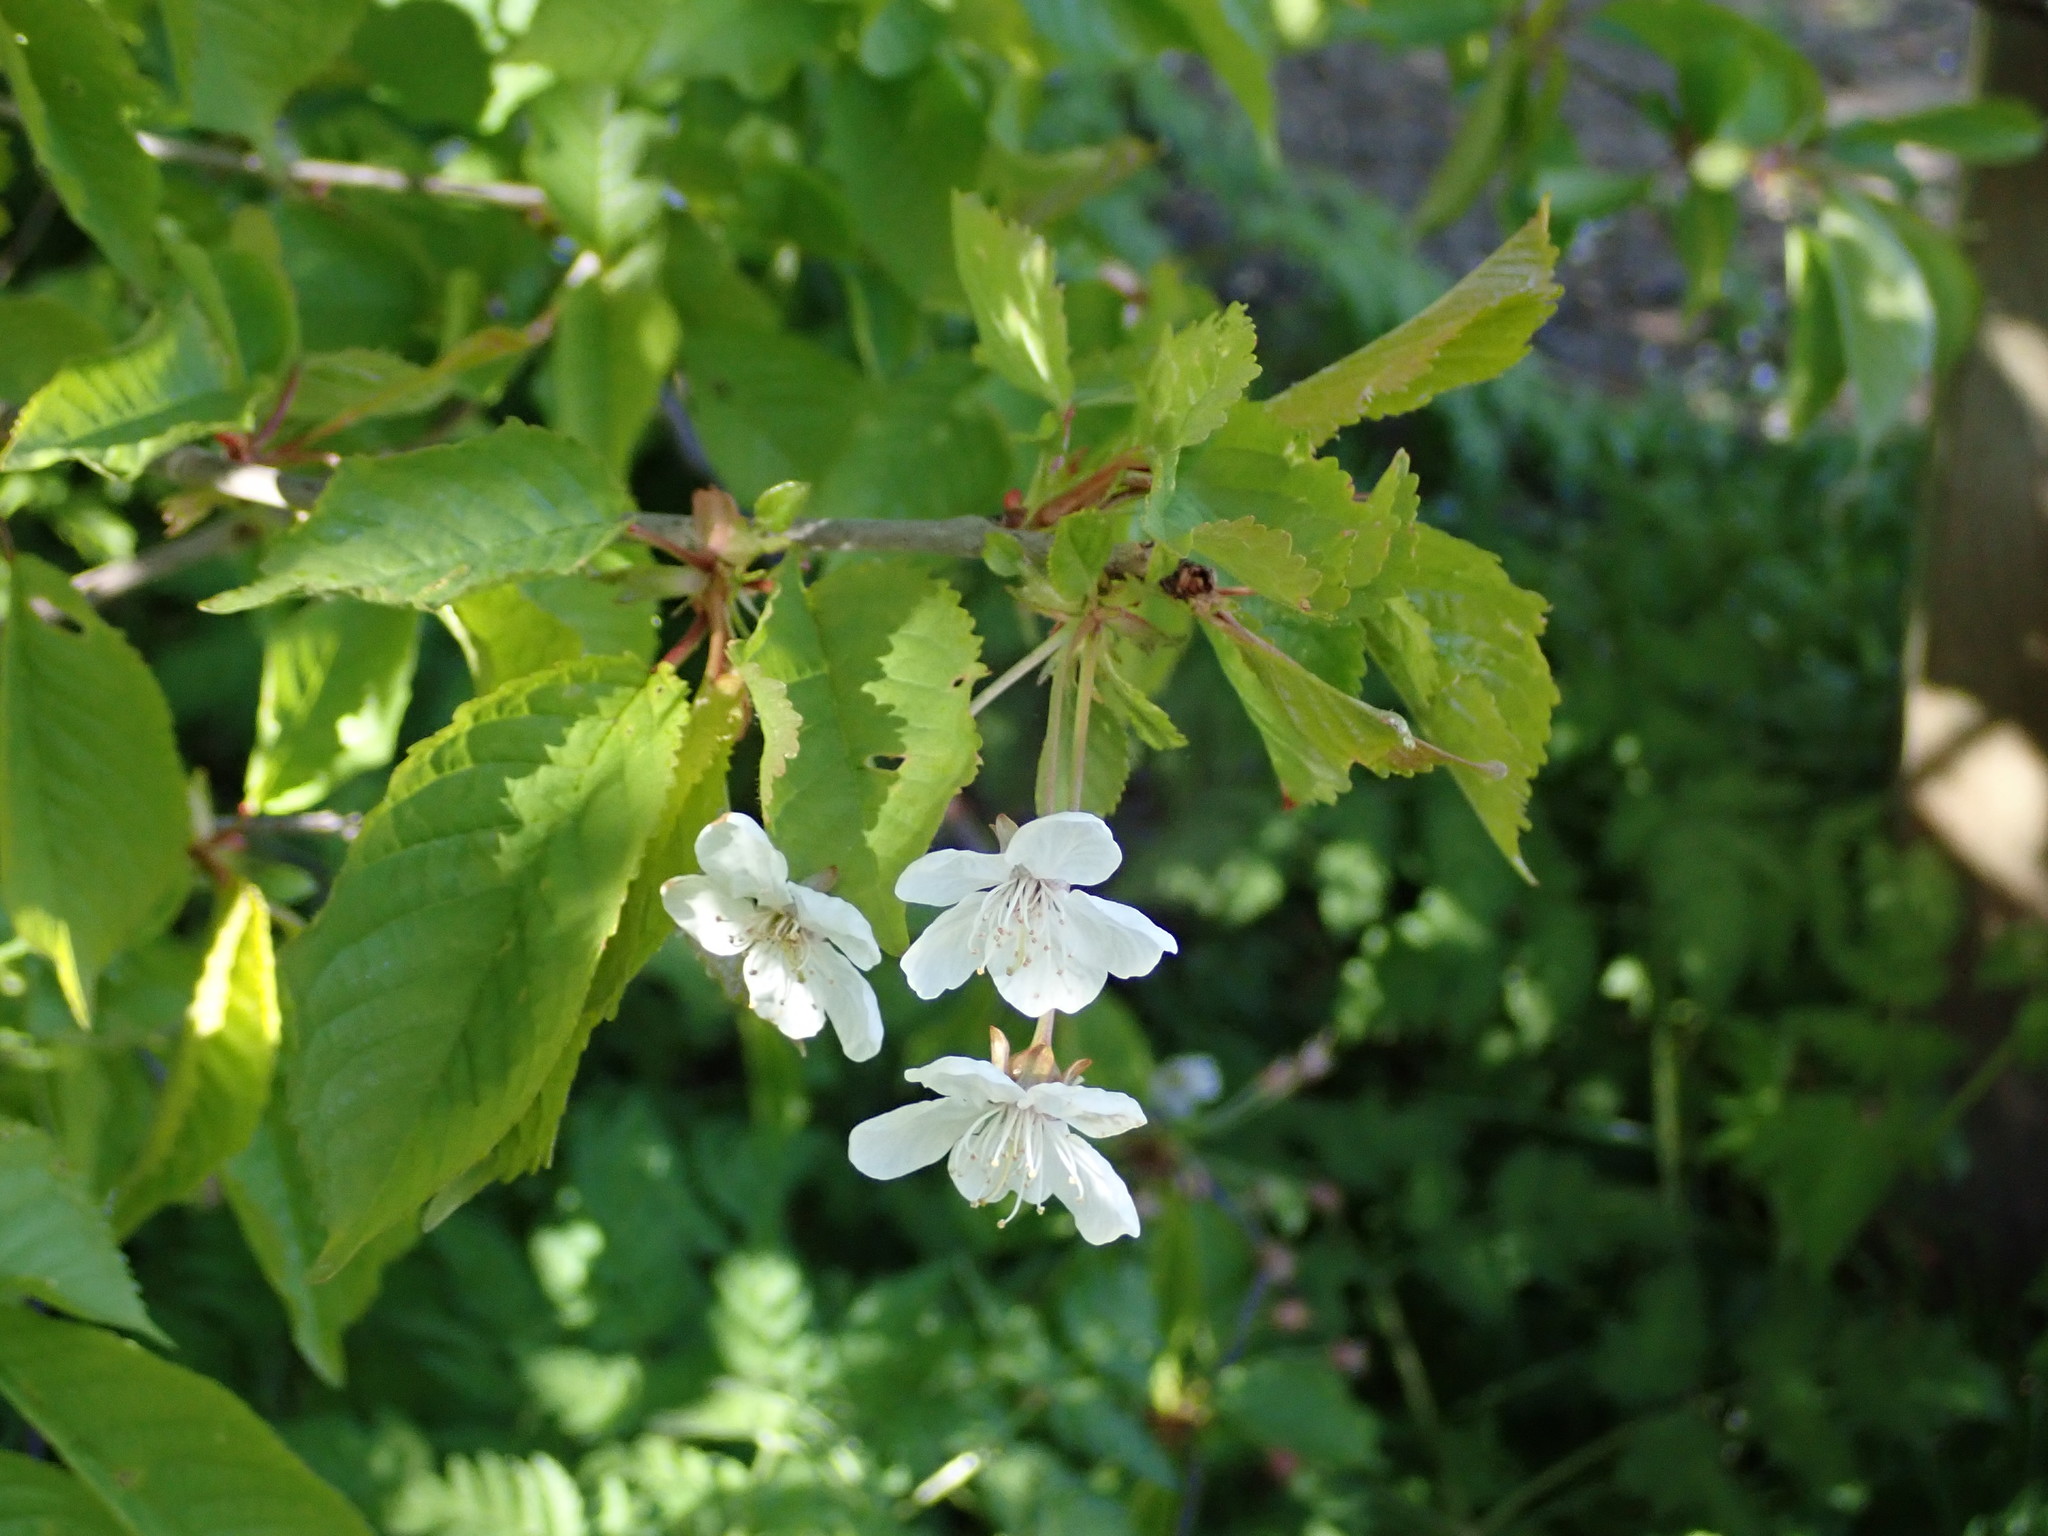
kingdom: Plantae
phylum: Tracheophyta
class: Magnoliopsida
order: Rosales
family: Rosaceae
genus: Prunus
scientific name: Prunus avium
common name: Sweet cherry
